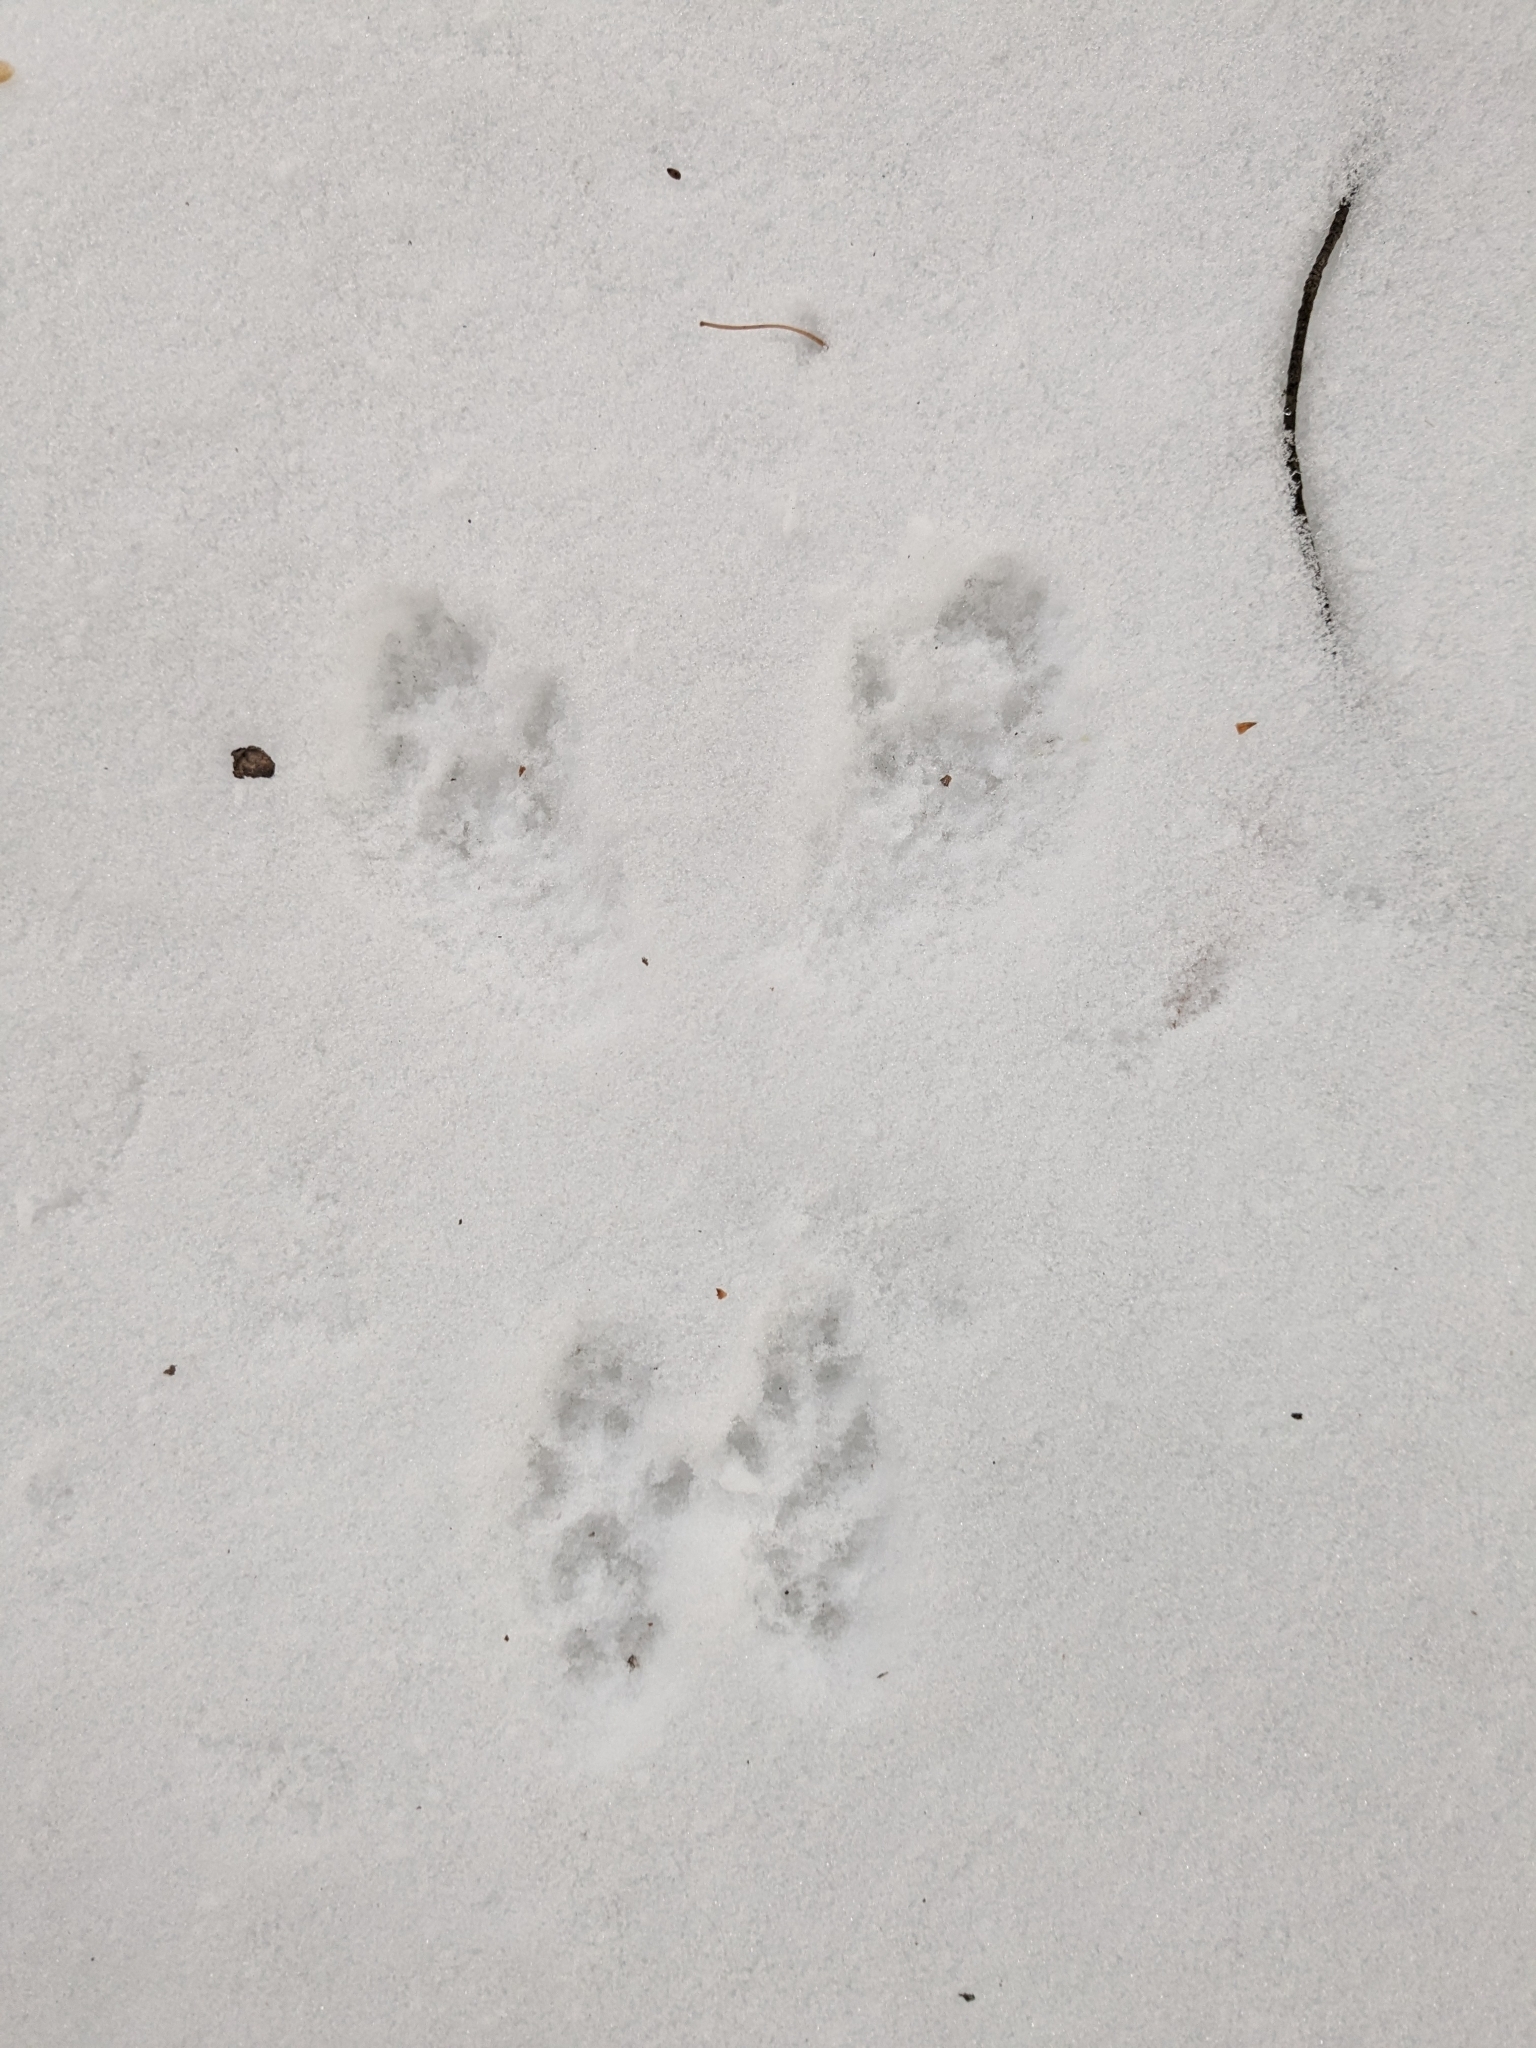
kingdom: Animalia
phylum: Chordata
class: Mammalia
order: Rodentia
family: Sciuridae
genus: Sciurus
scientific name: Sciurus carolinensis
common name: Eastern gray squirrel
